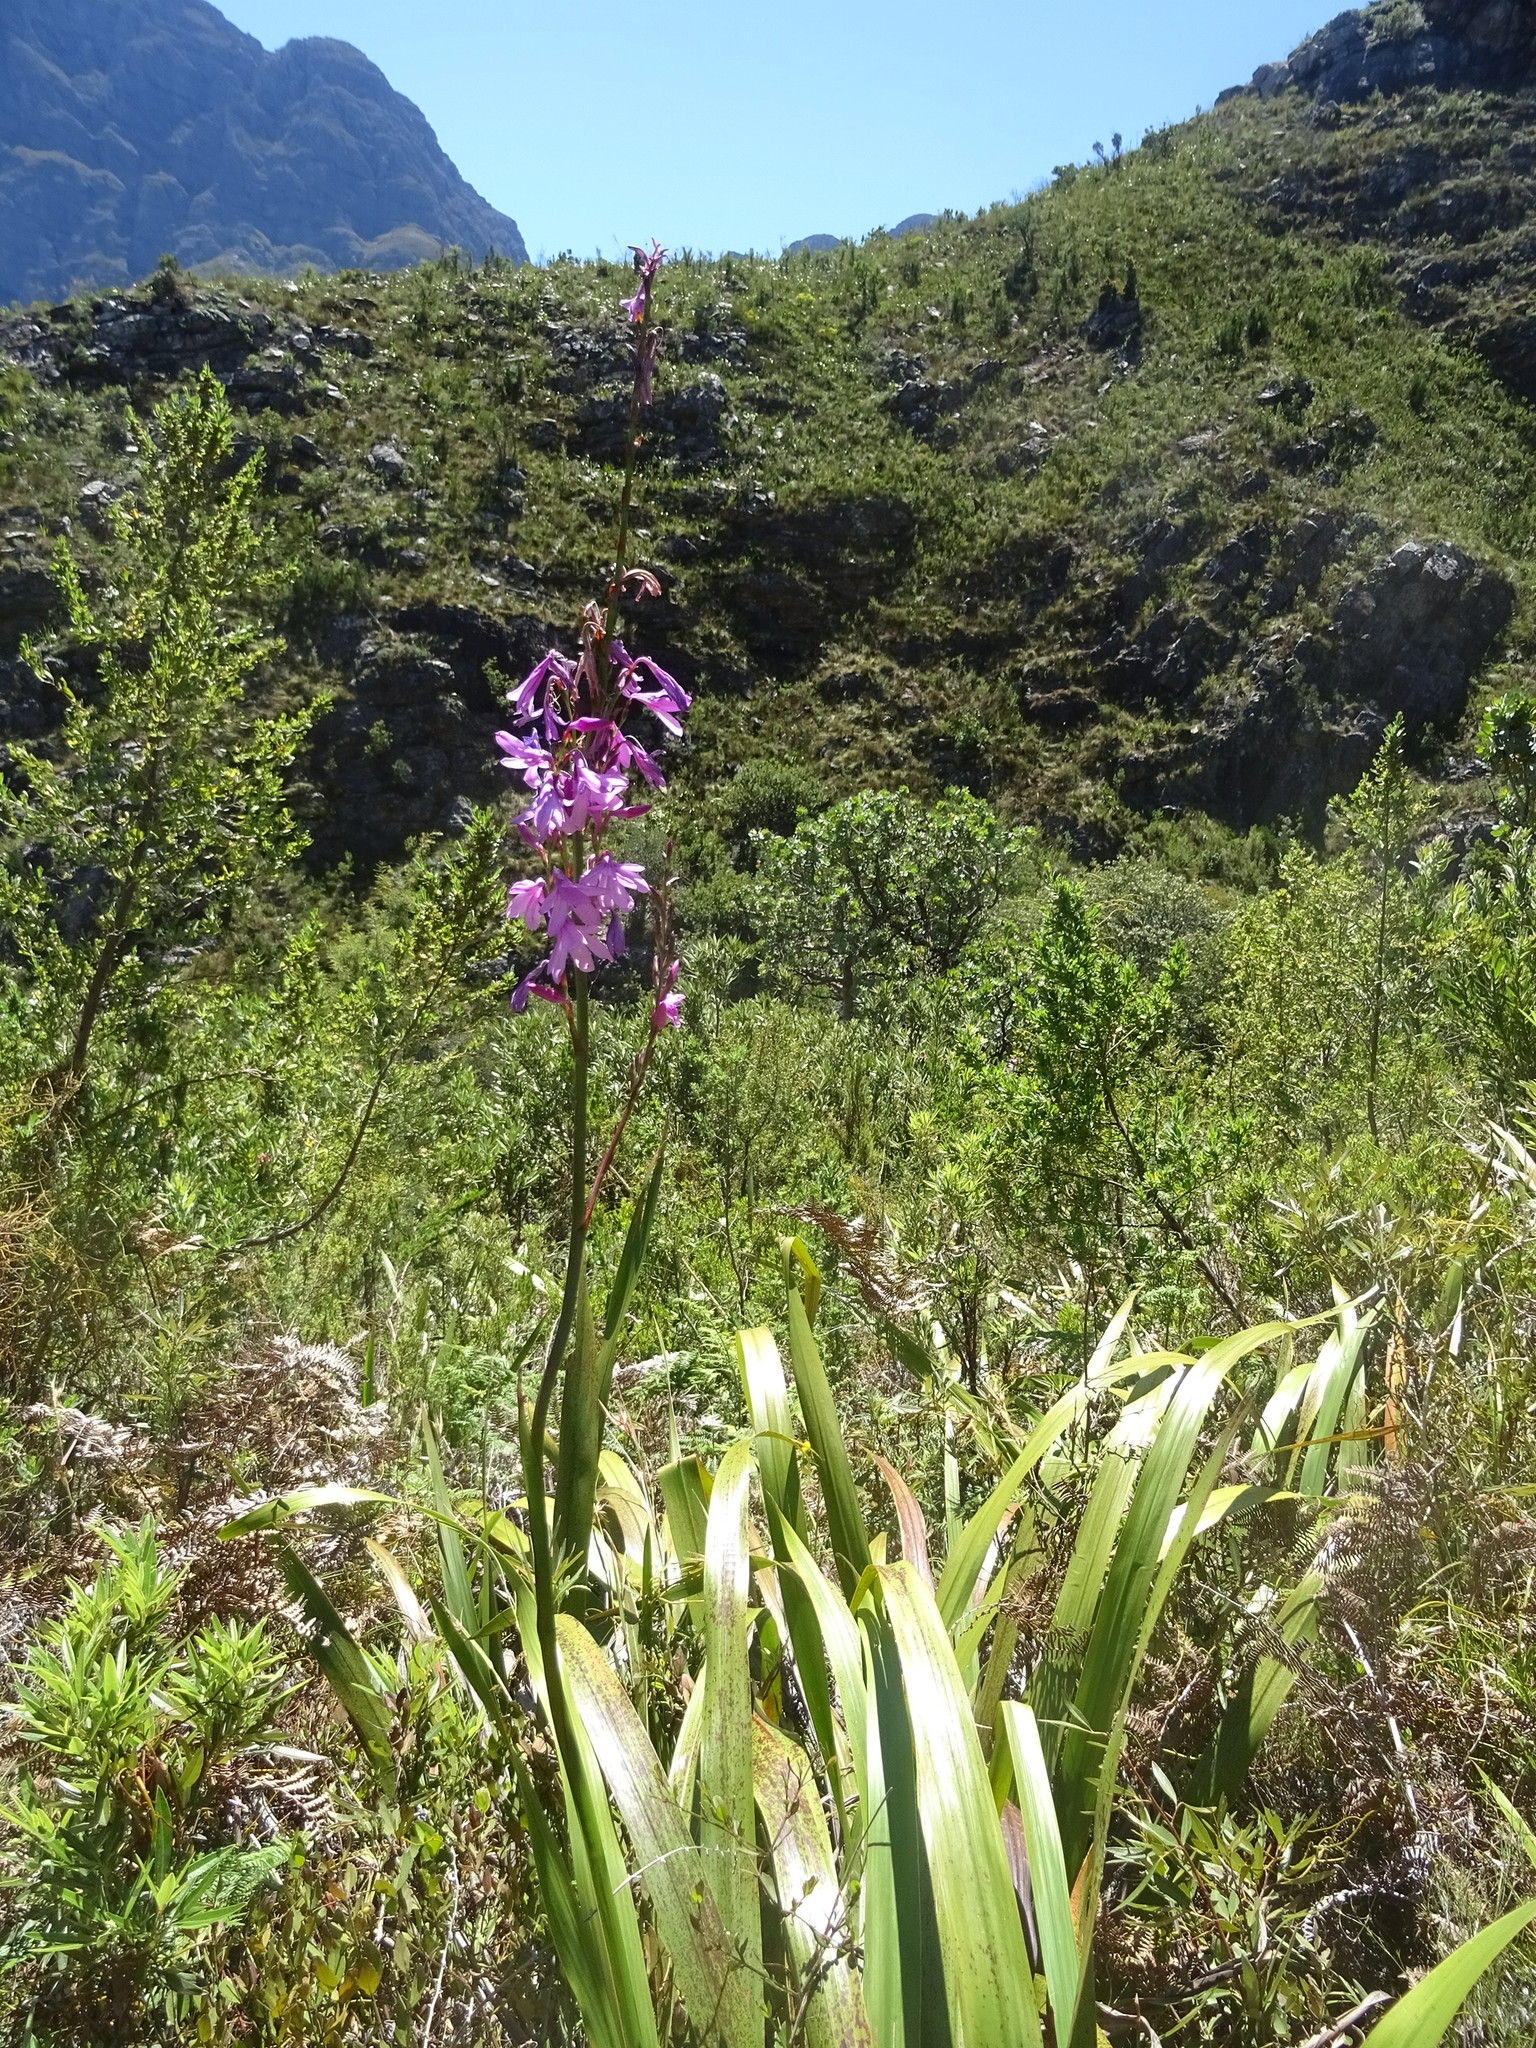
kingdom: Plantae
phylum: Tracheophyta
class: Liliopsida
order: Asparagales
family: Iridaceae
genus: Watsonia
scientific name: Watsonia borbonica
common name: Bugle-lily
